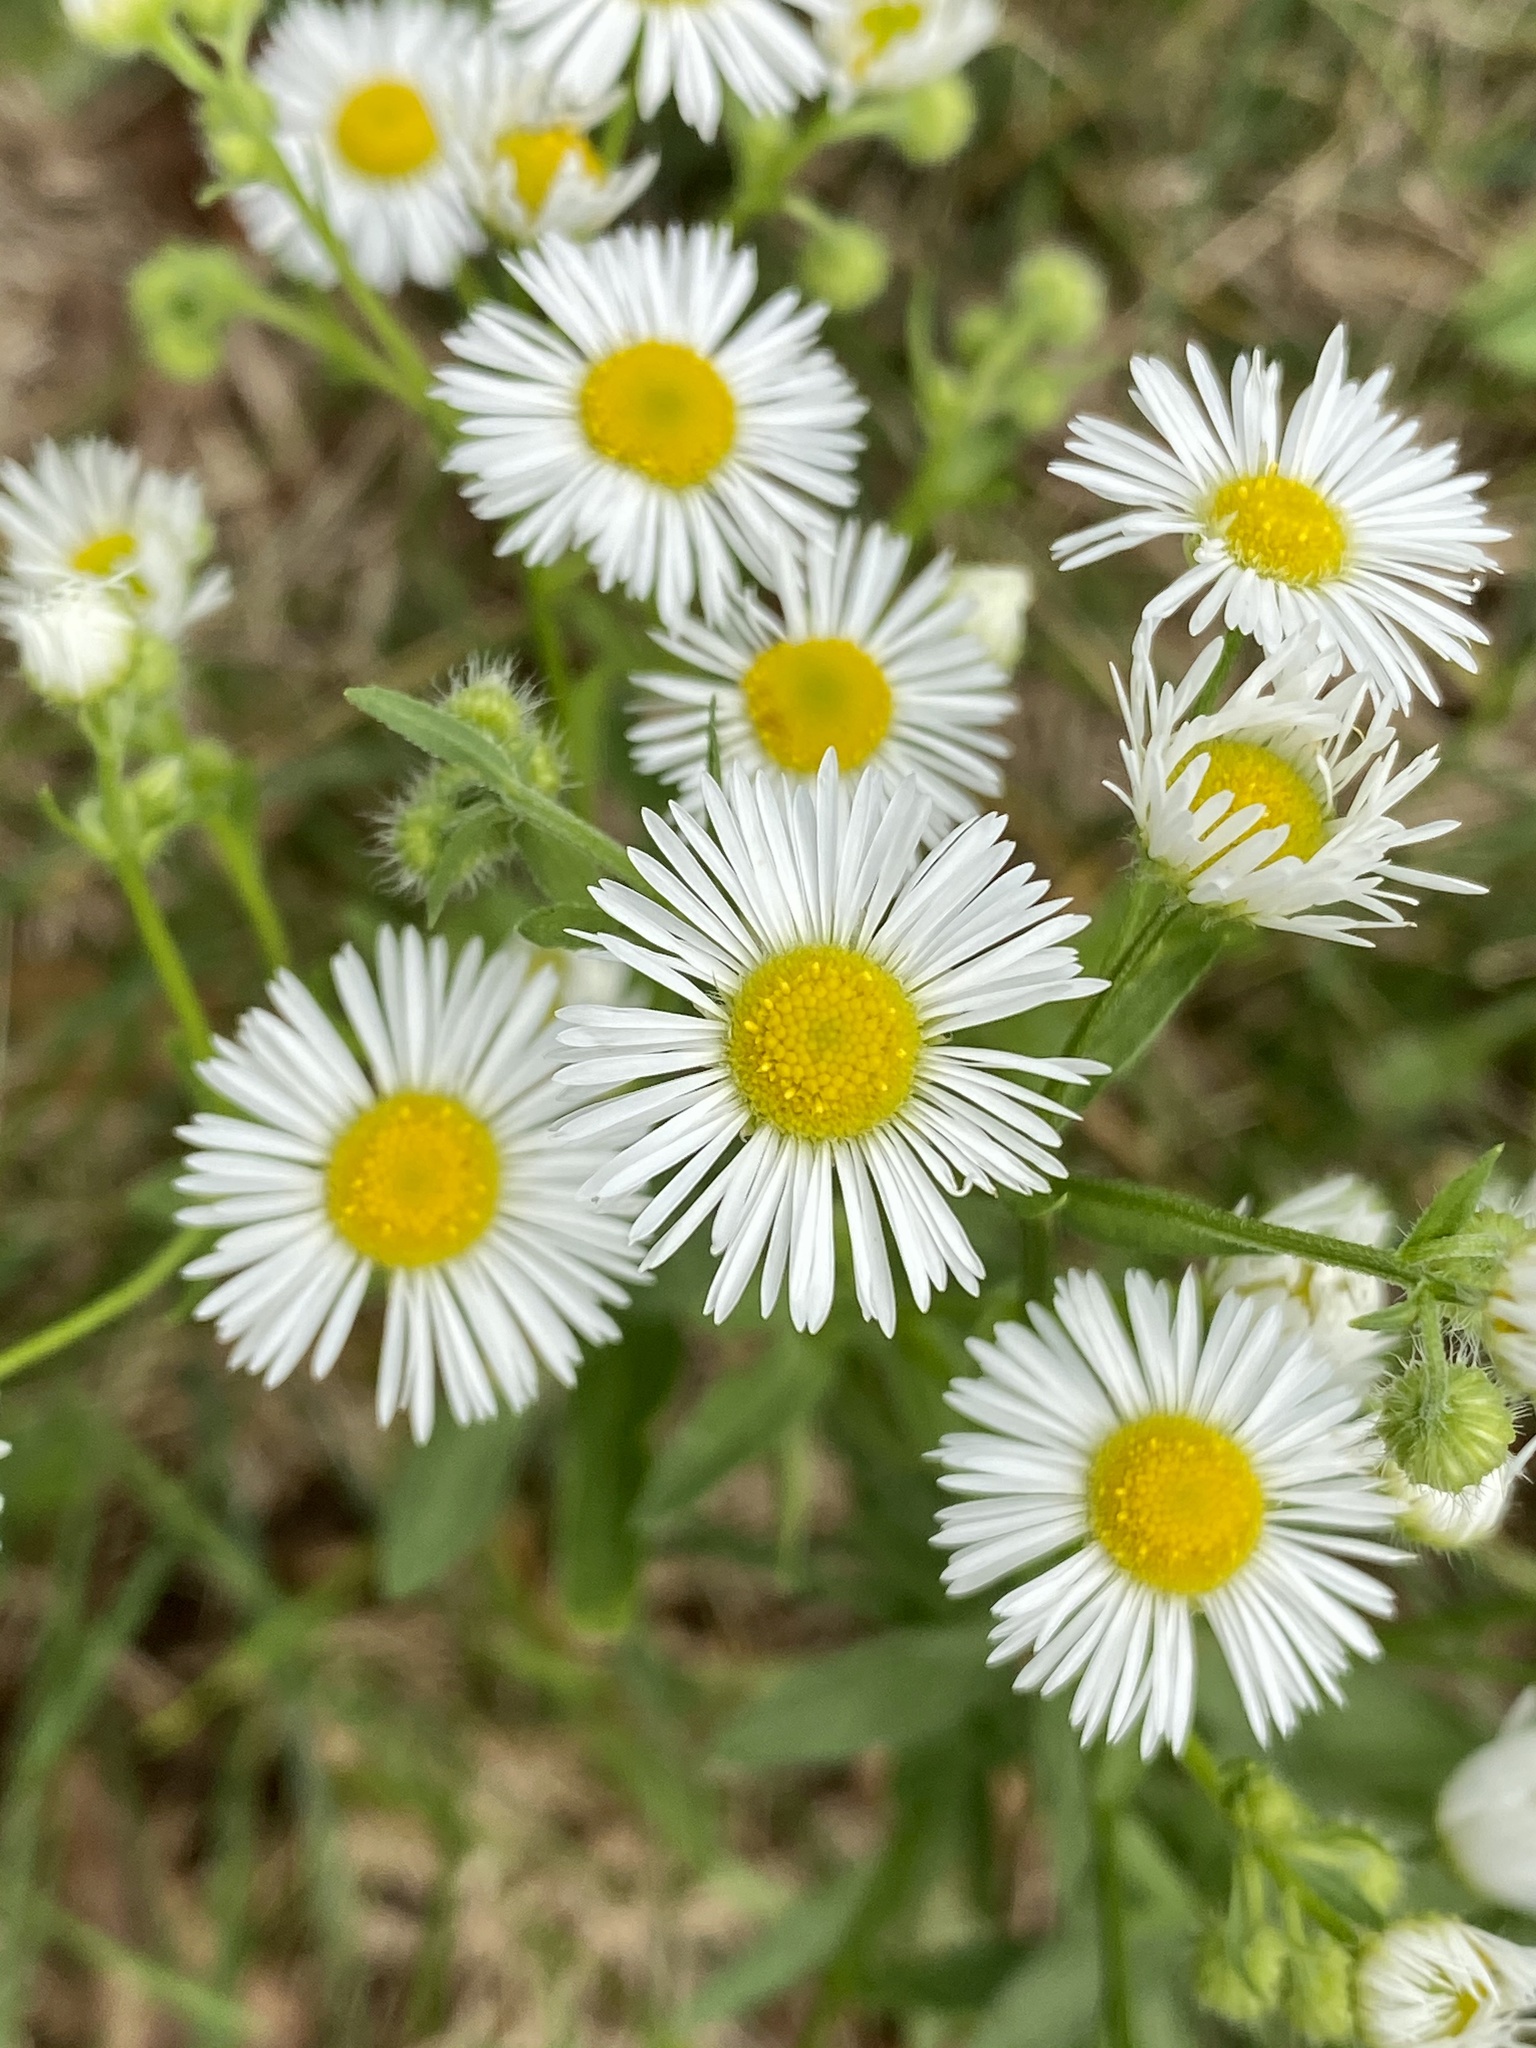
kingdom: Plantae
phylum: Tracheophyta
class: Magnoliopsida
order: Asterales
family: Asteraceae
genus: Erigeron
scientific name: Erigeron annuus
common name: Tall fleabane
